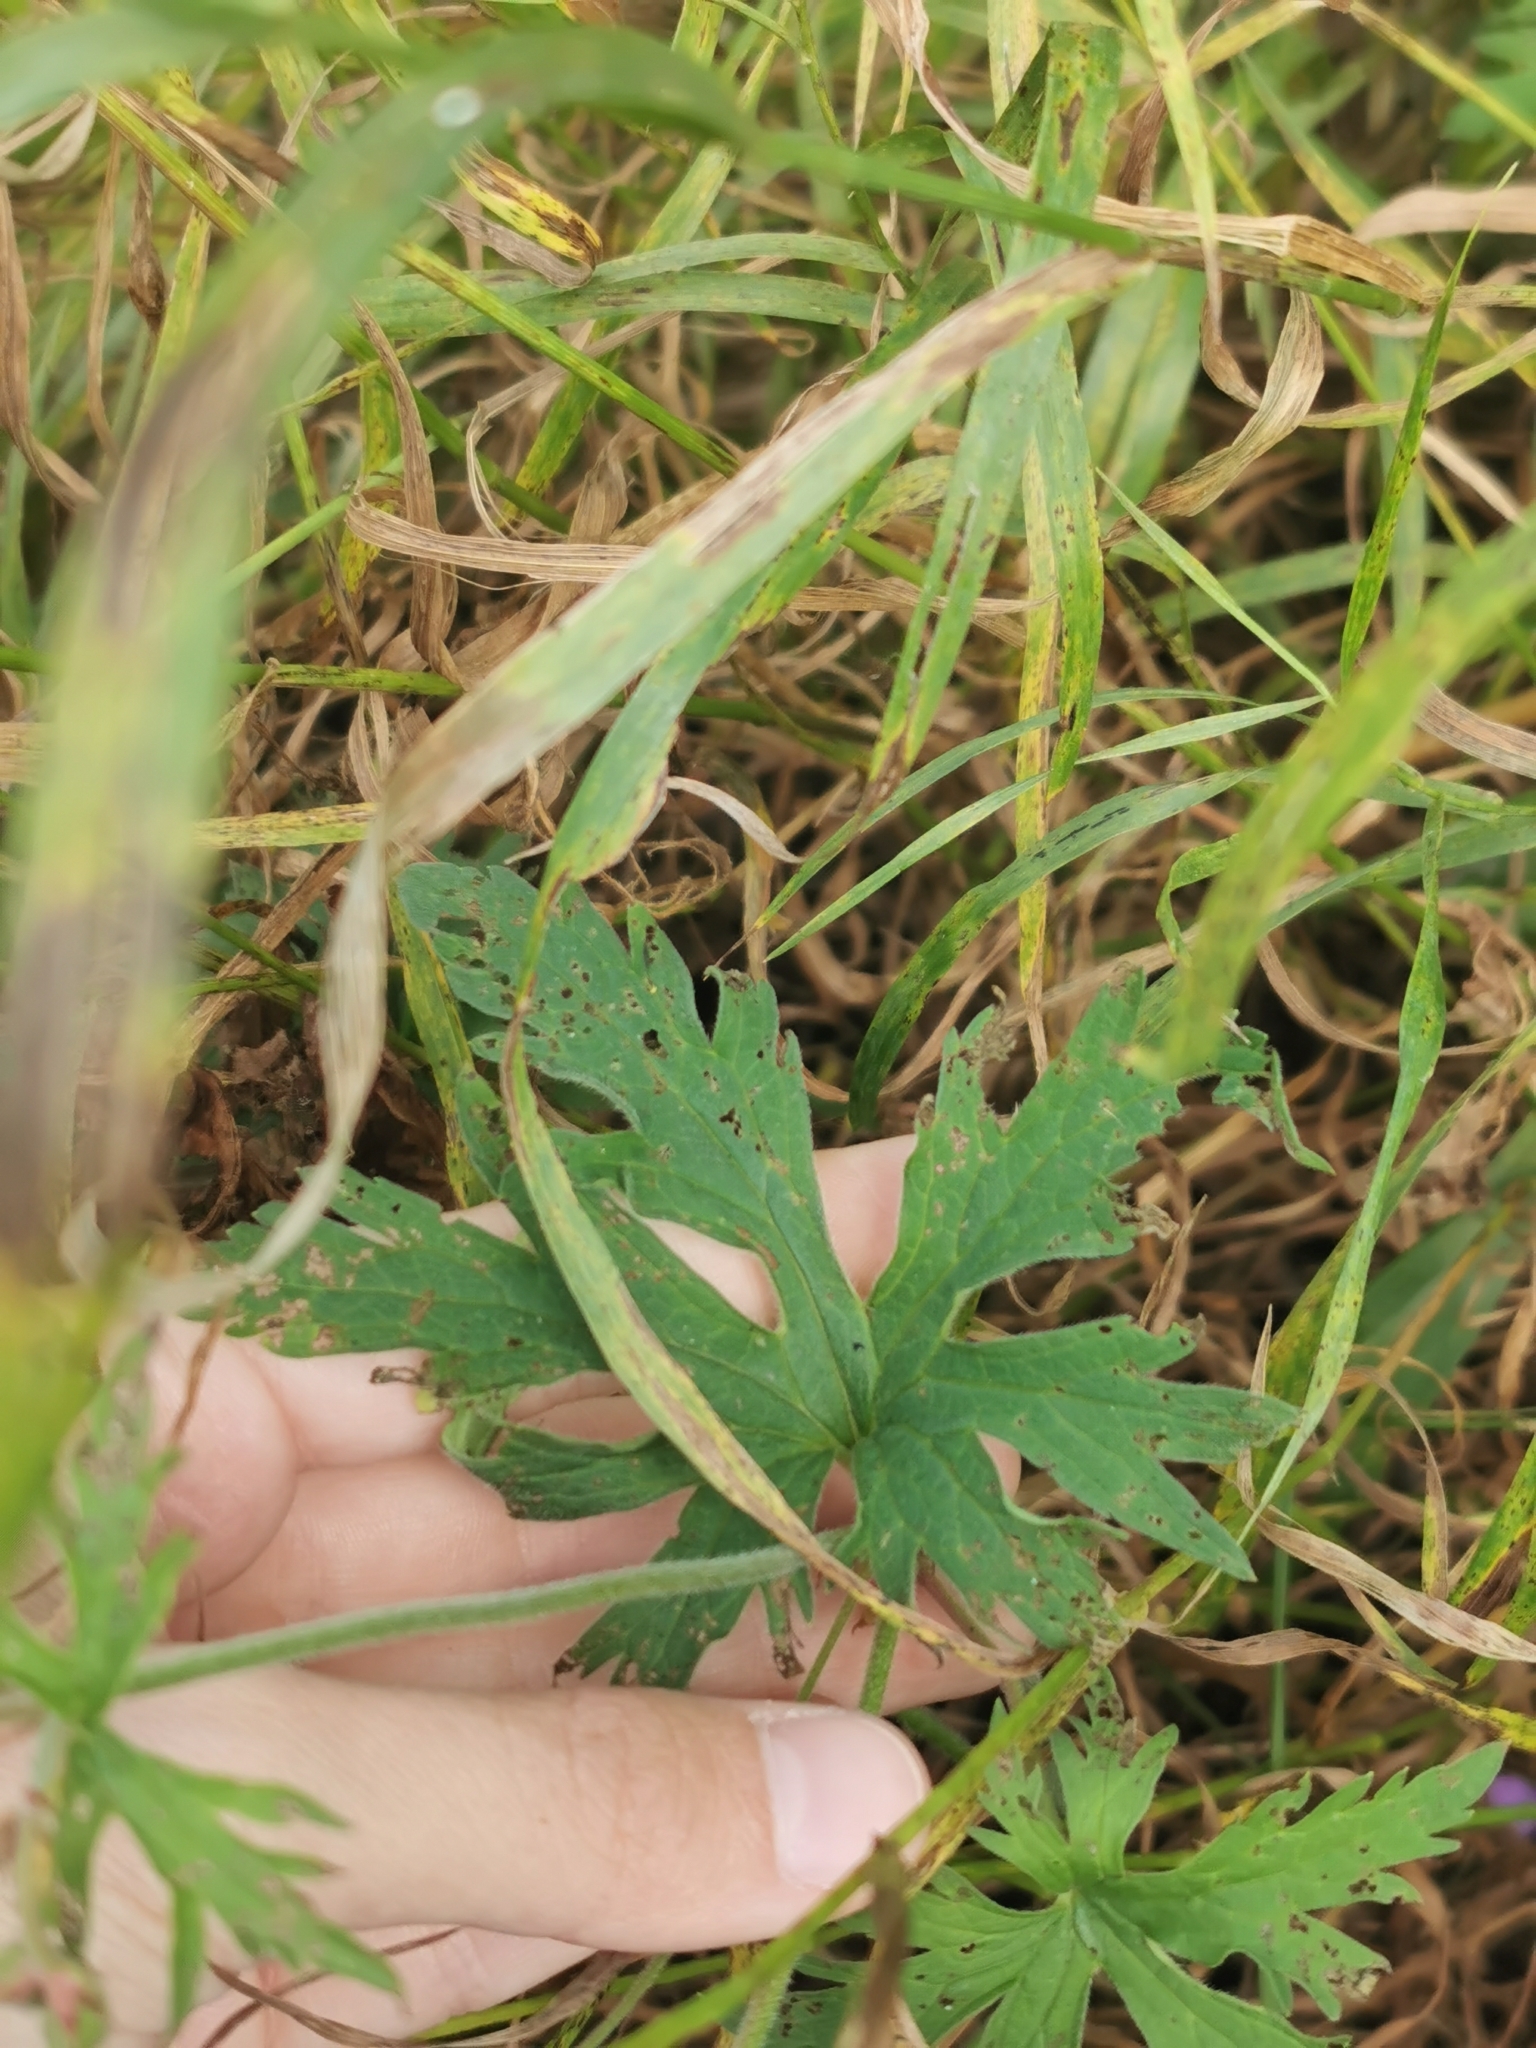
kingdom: Plantae
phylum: Tracheophyta
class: Magnoliopsida
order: Geraniales
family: Geraniaceae
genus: Geranium
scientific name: Geranium pratense
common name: Meadow crane's-bill
